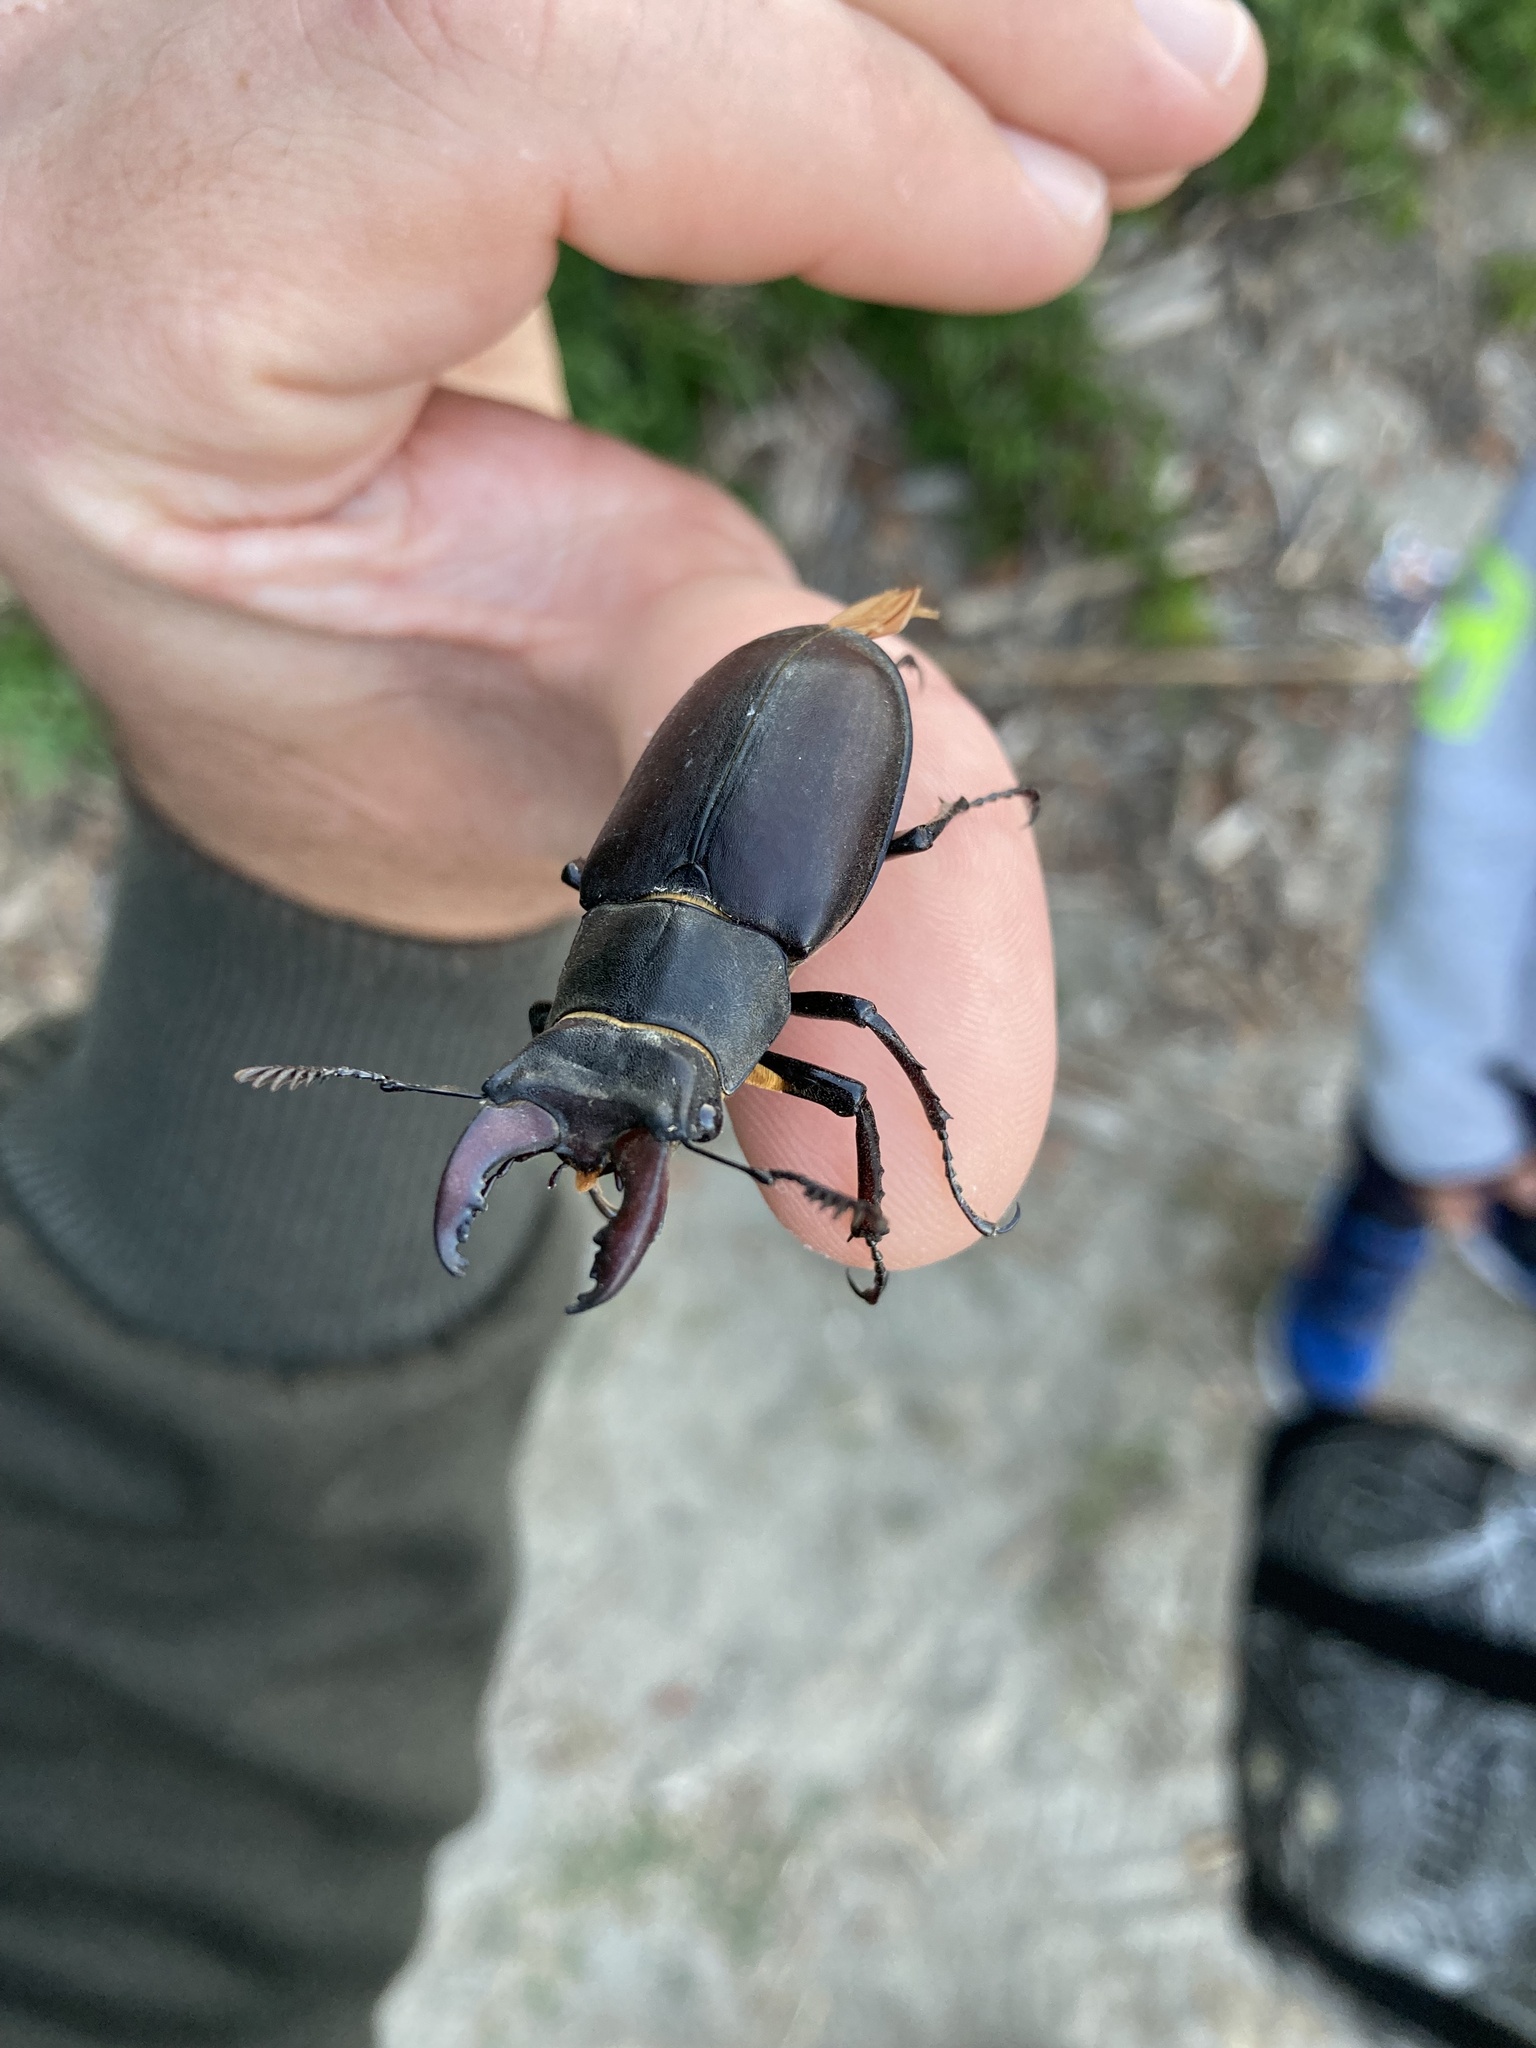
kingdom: Animalia
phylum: Arthropoda
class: Insecta
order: Coleoptera
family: Lucanidae
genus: Lucanus
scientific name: Lucanus cervus
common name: Stag beetle
